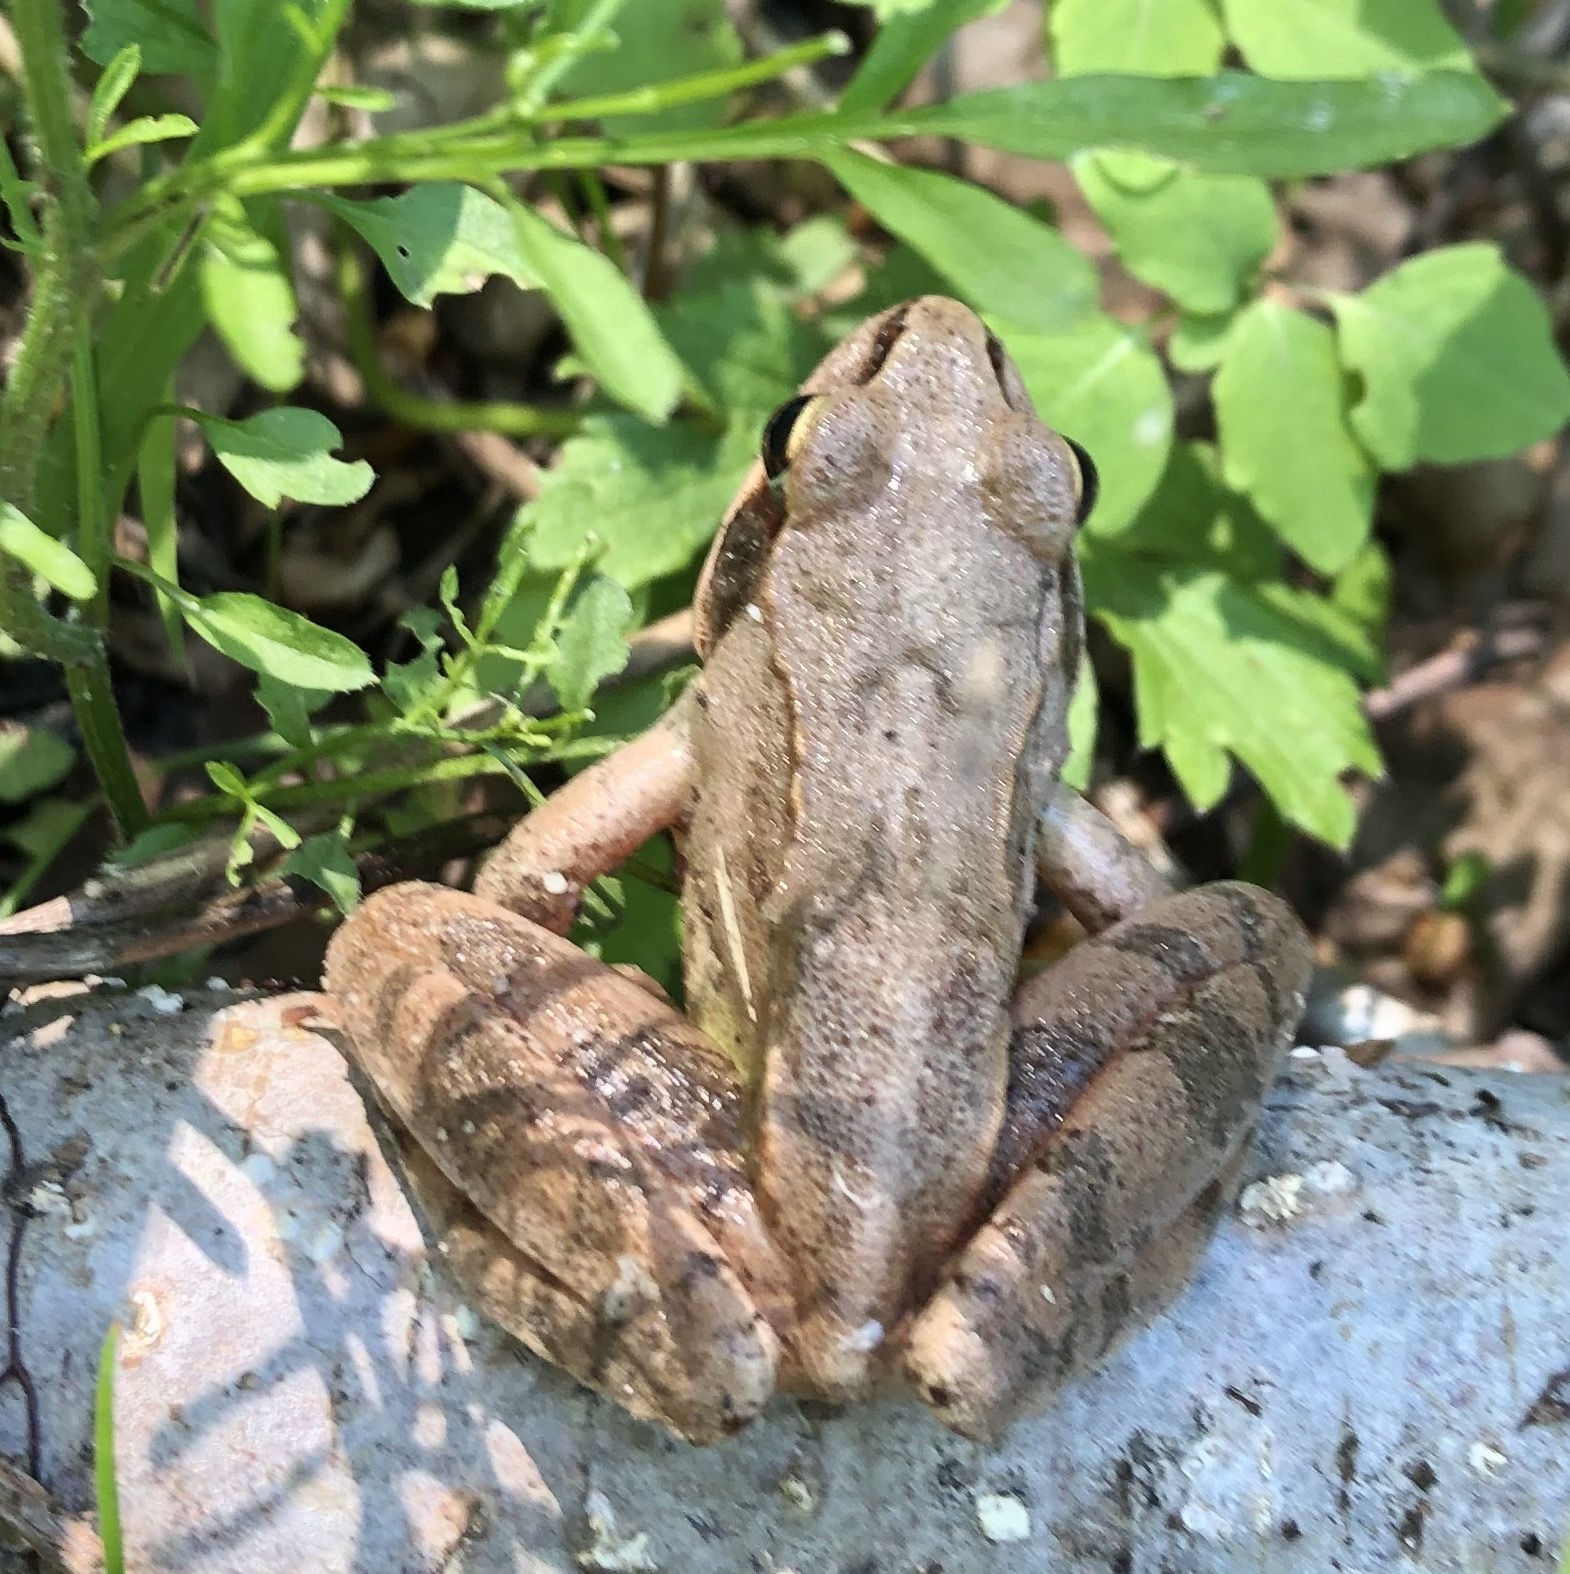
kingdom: Animalia
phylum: Chordata
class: Amphibia
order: Anura
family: Ranidae
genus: Rana
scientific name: Rana temporaria
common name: Common frog
